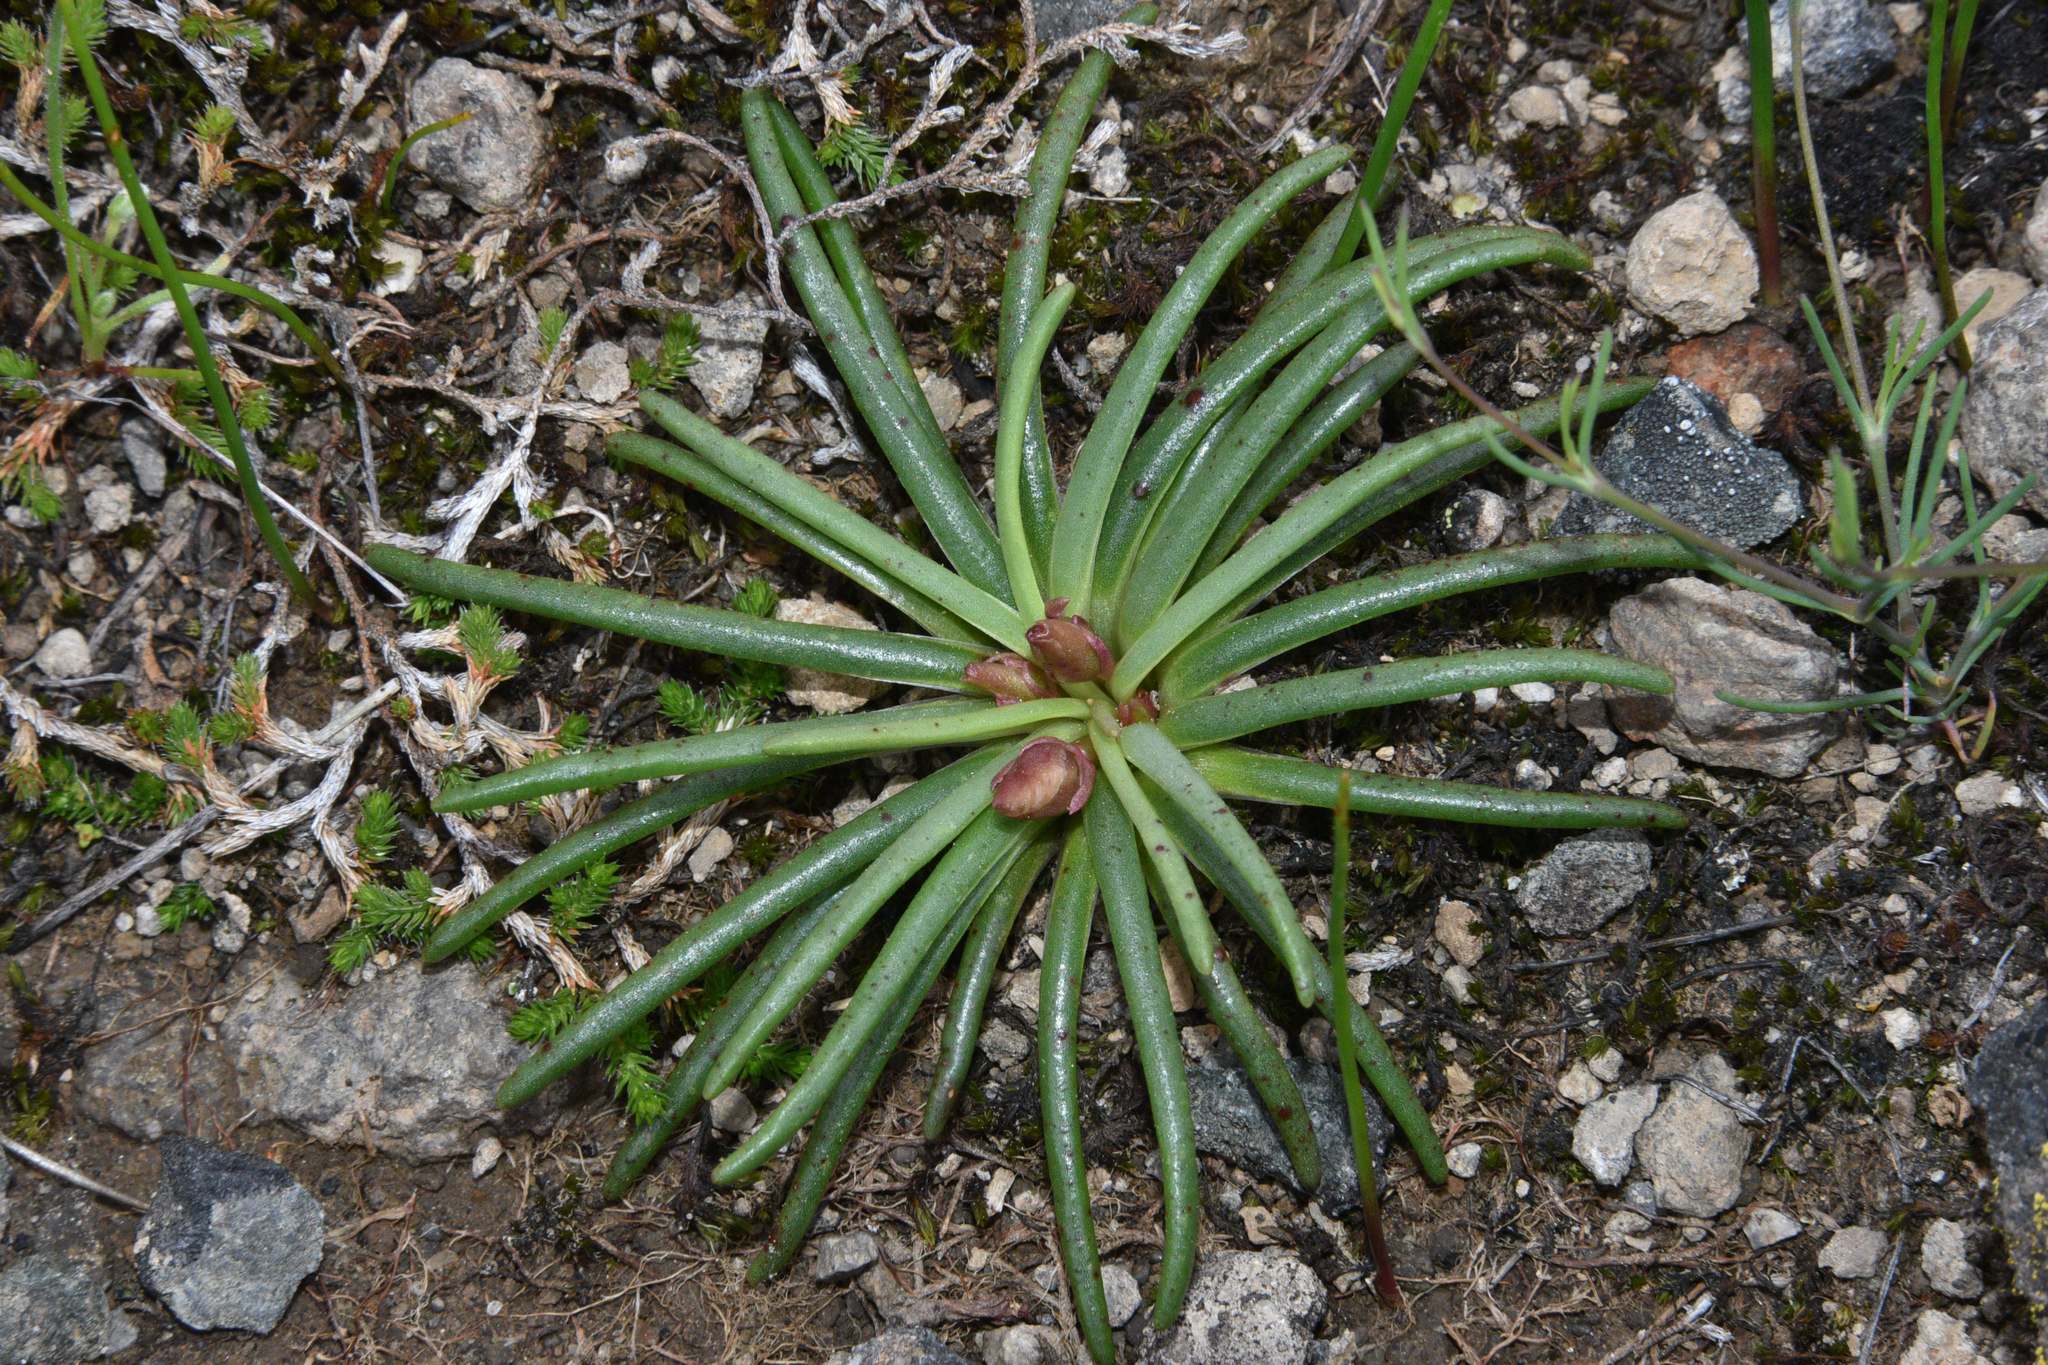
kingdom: Plantae
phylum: Tracheophyta
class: Magnoliopsida
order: Caryophyllales
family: Montiaceae
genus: Lewisia
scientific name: Lewisia rediviva
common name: Bitter-root
